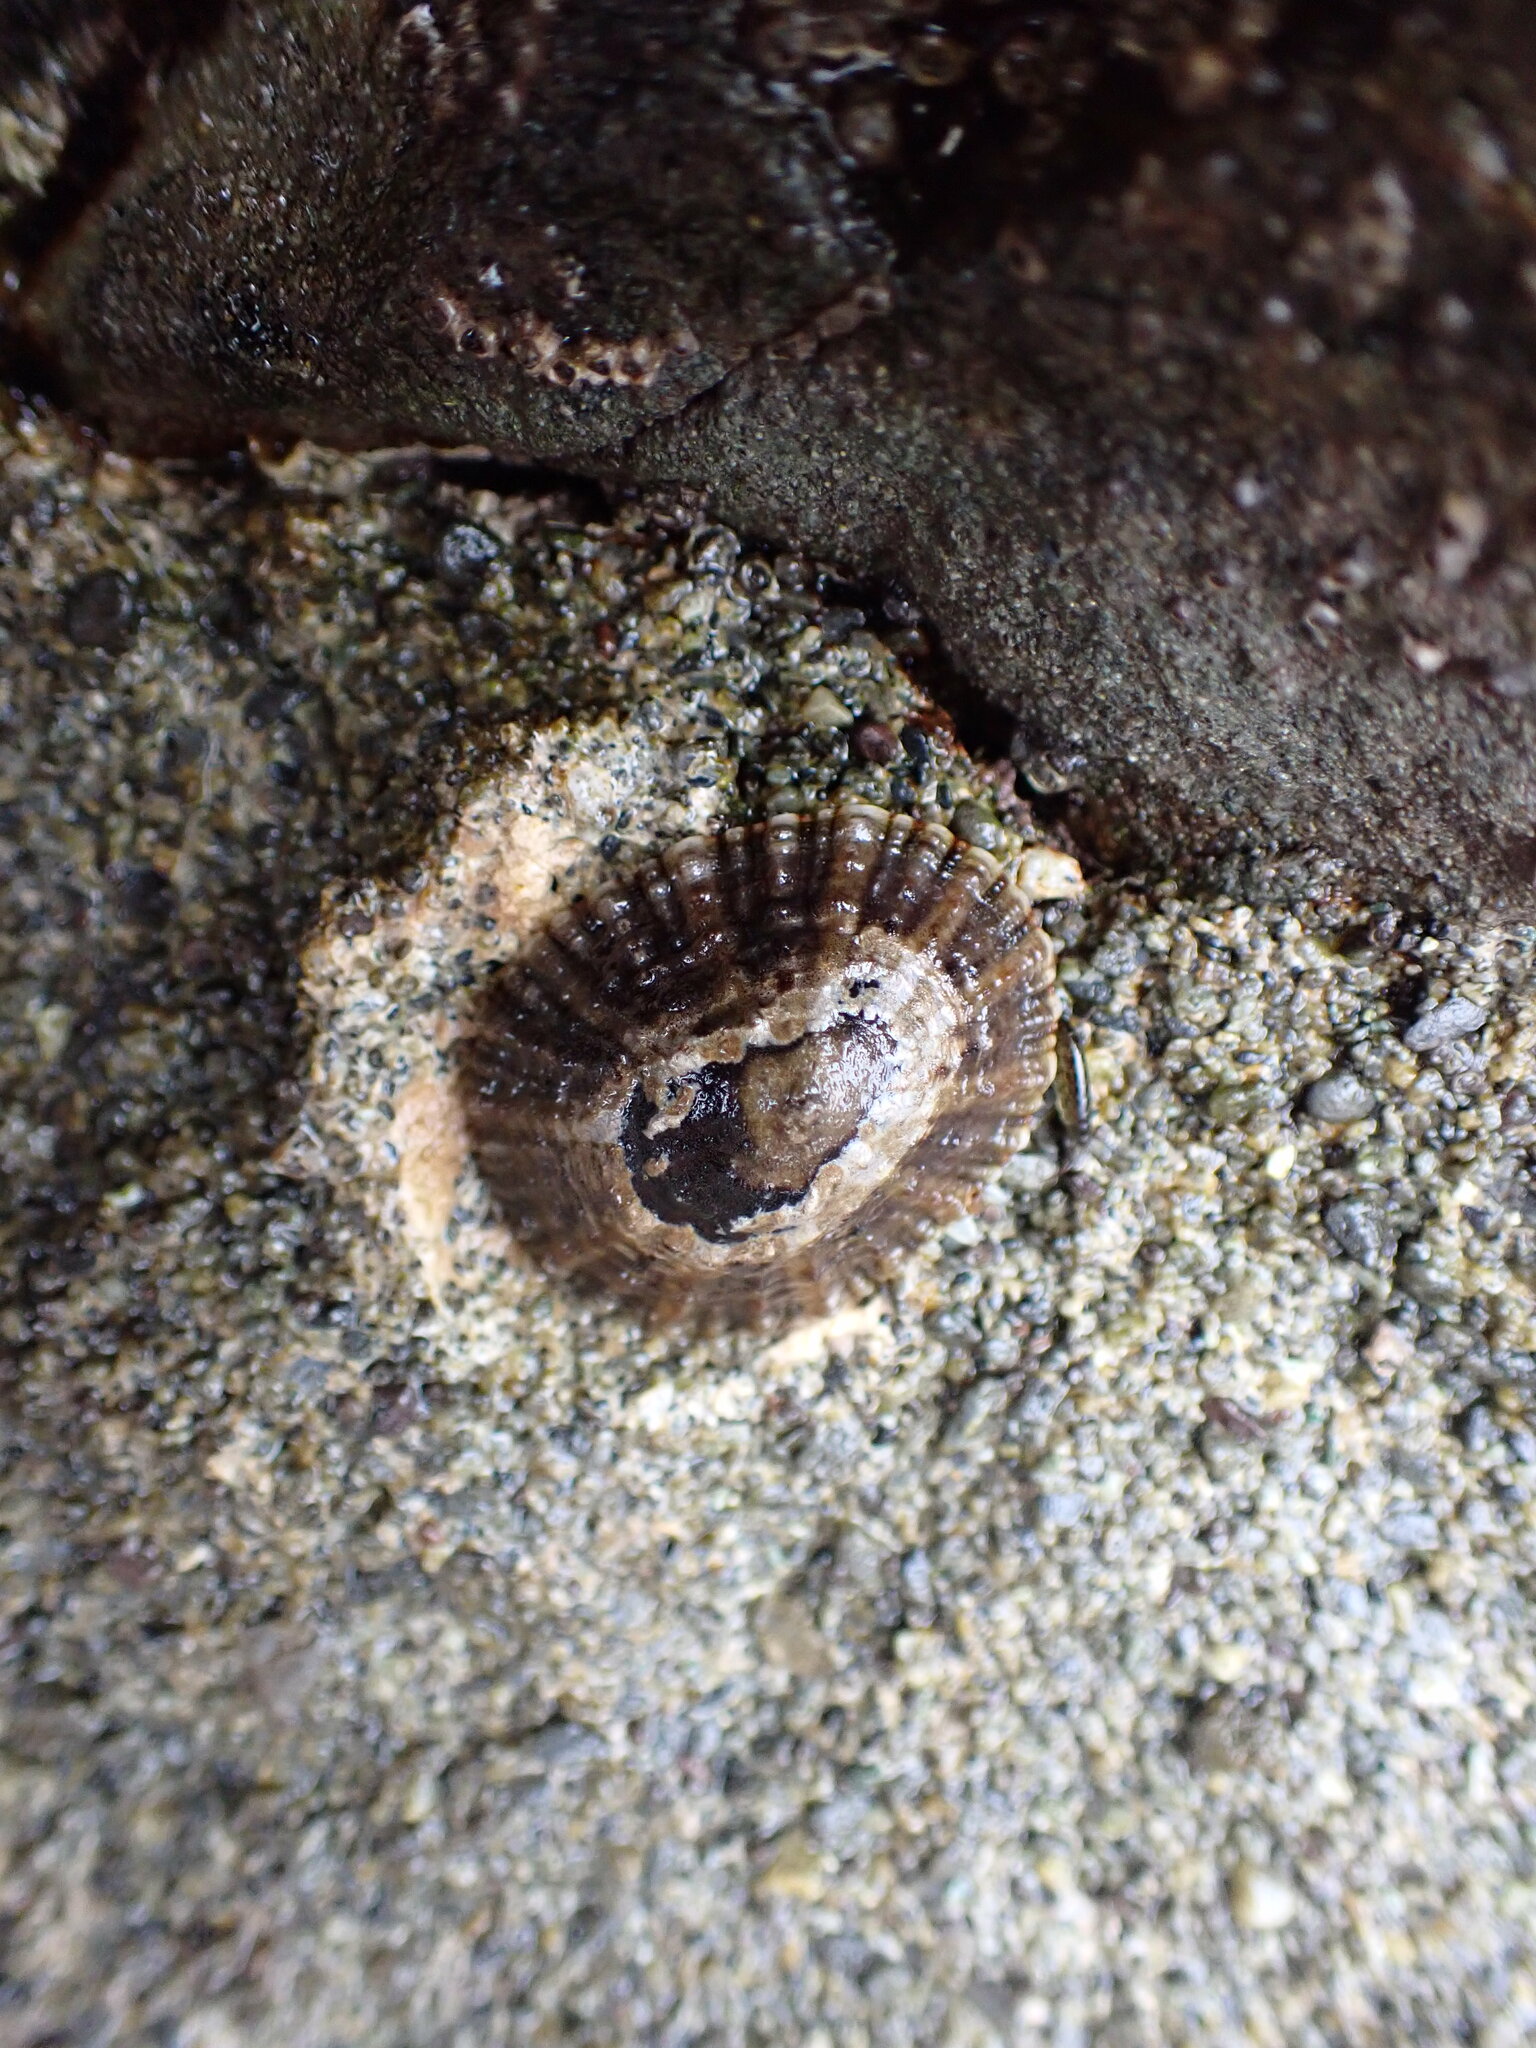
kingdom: Animalia
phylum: Mollusca
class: Gastropoda
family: Nacellidae
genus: Cellana
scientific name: Cellana ornata
